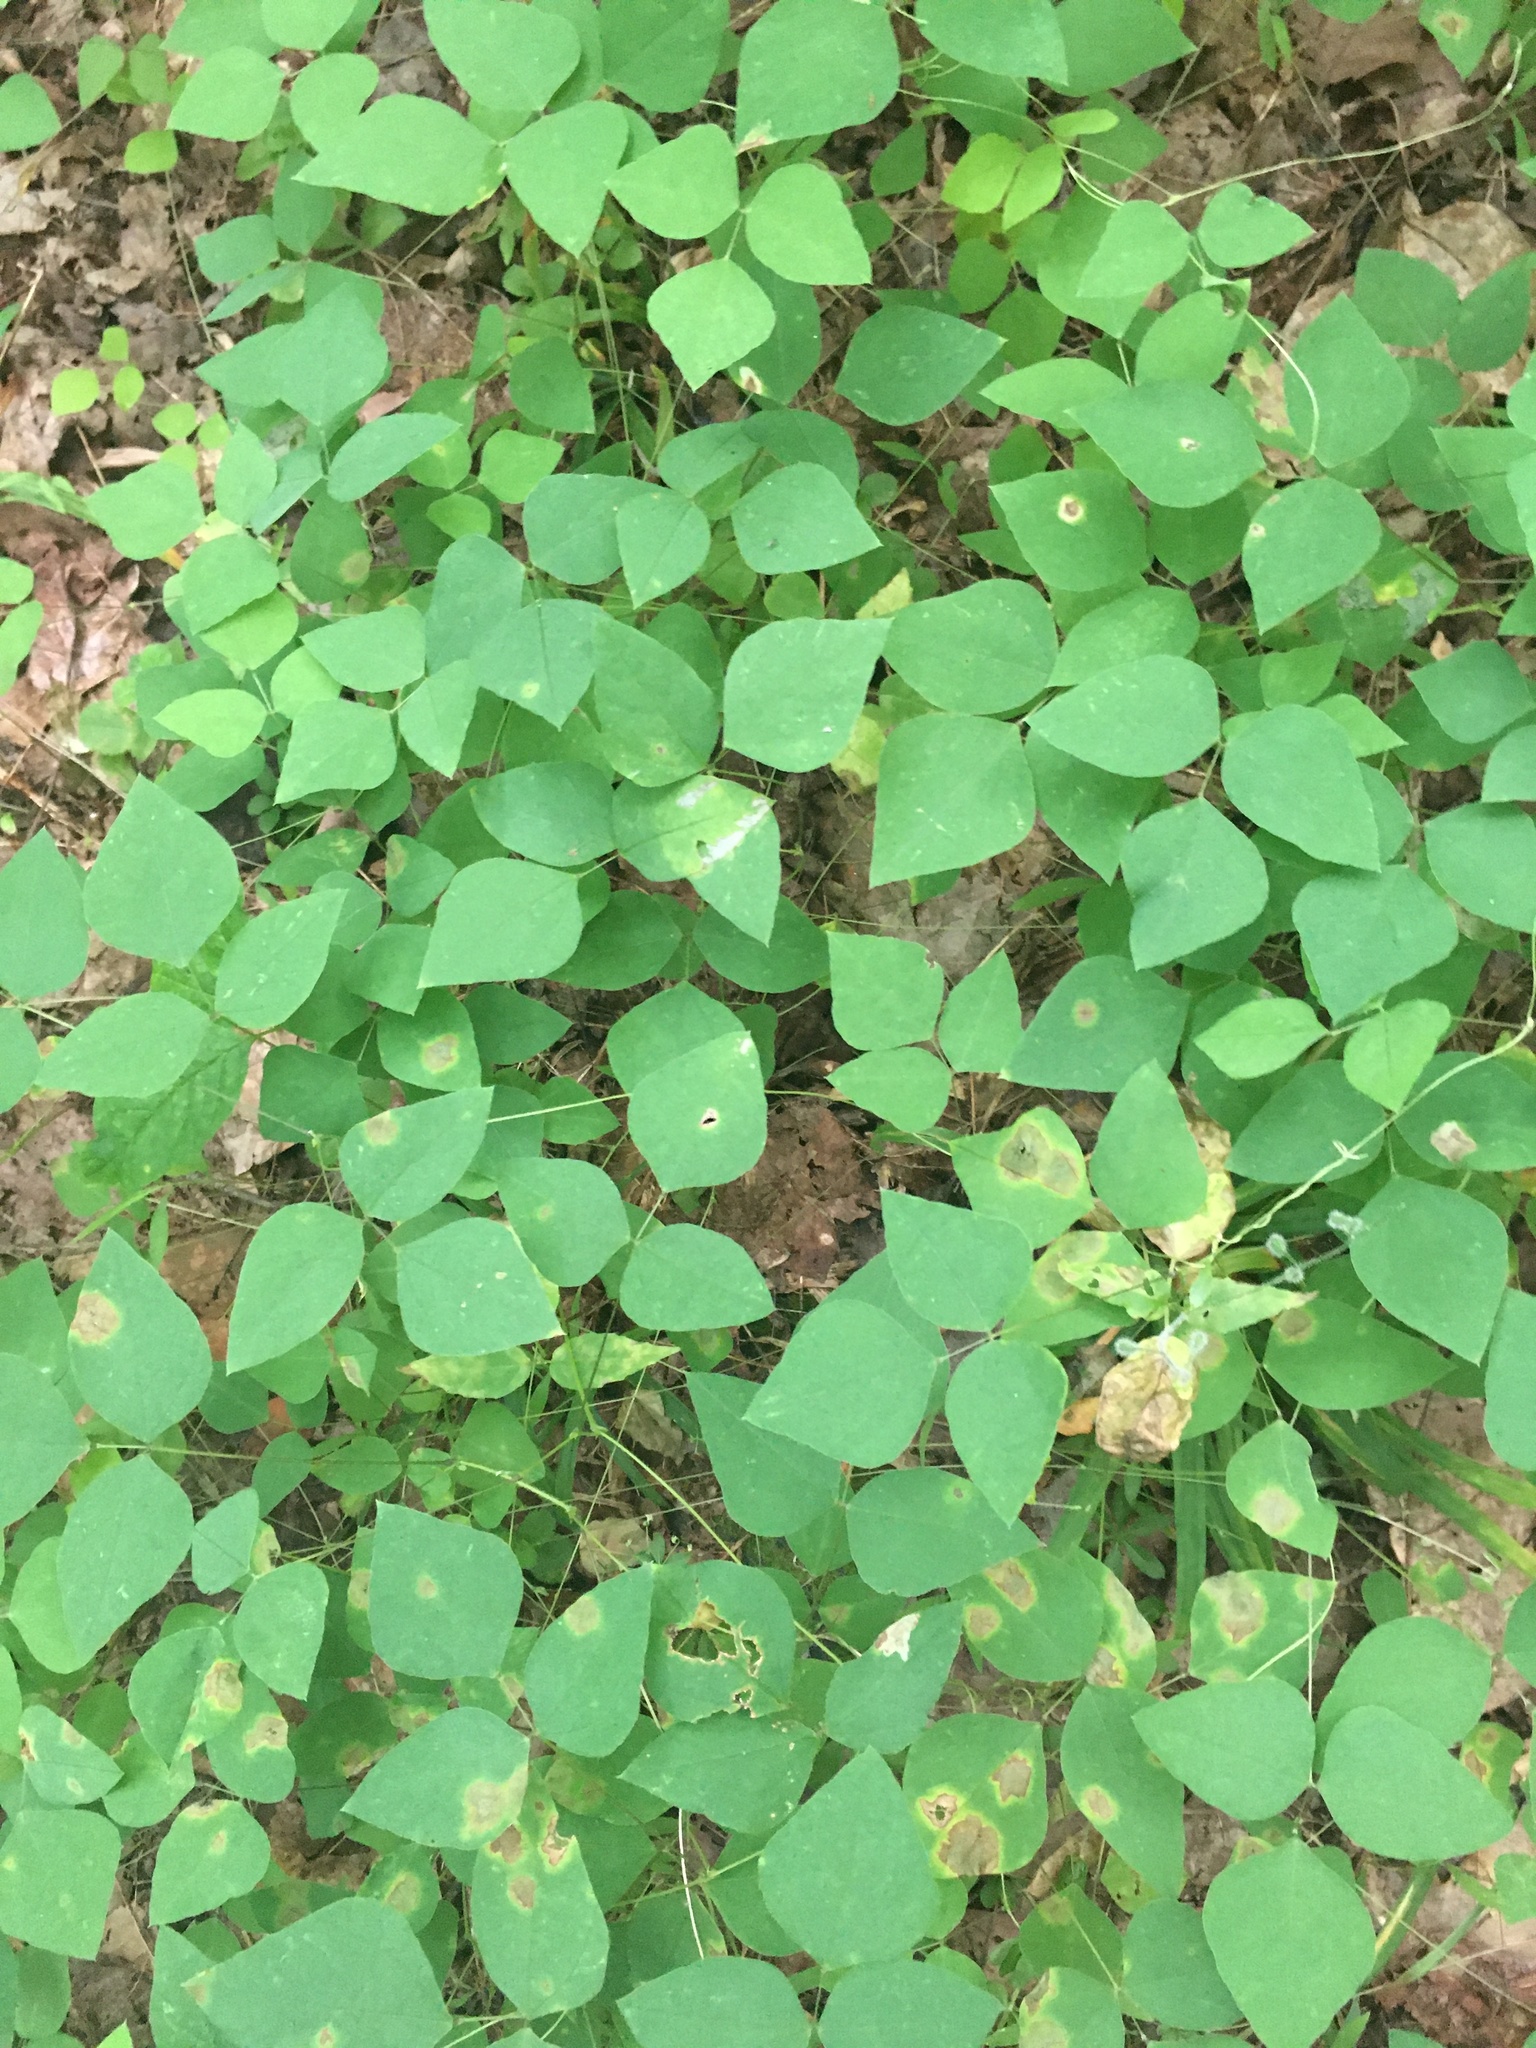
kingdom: Plantae
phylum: Tracheophyta
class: Magnoliopsida
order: Fabales
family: Fabaceae
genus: Amphicarpaea
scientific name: Amphicarpaea bracteata
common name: American hog peanut
